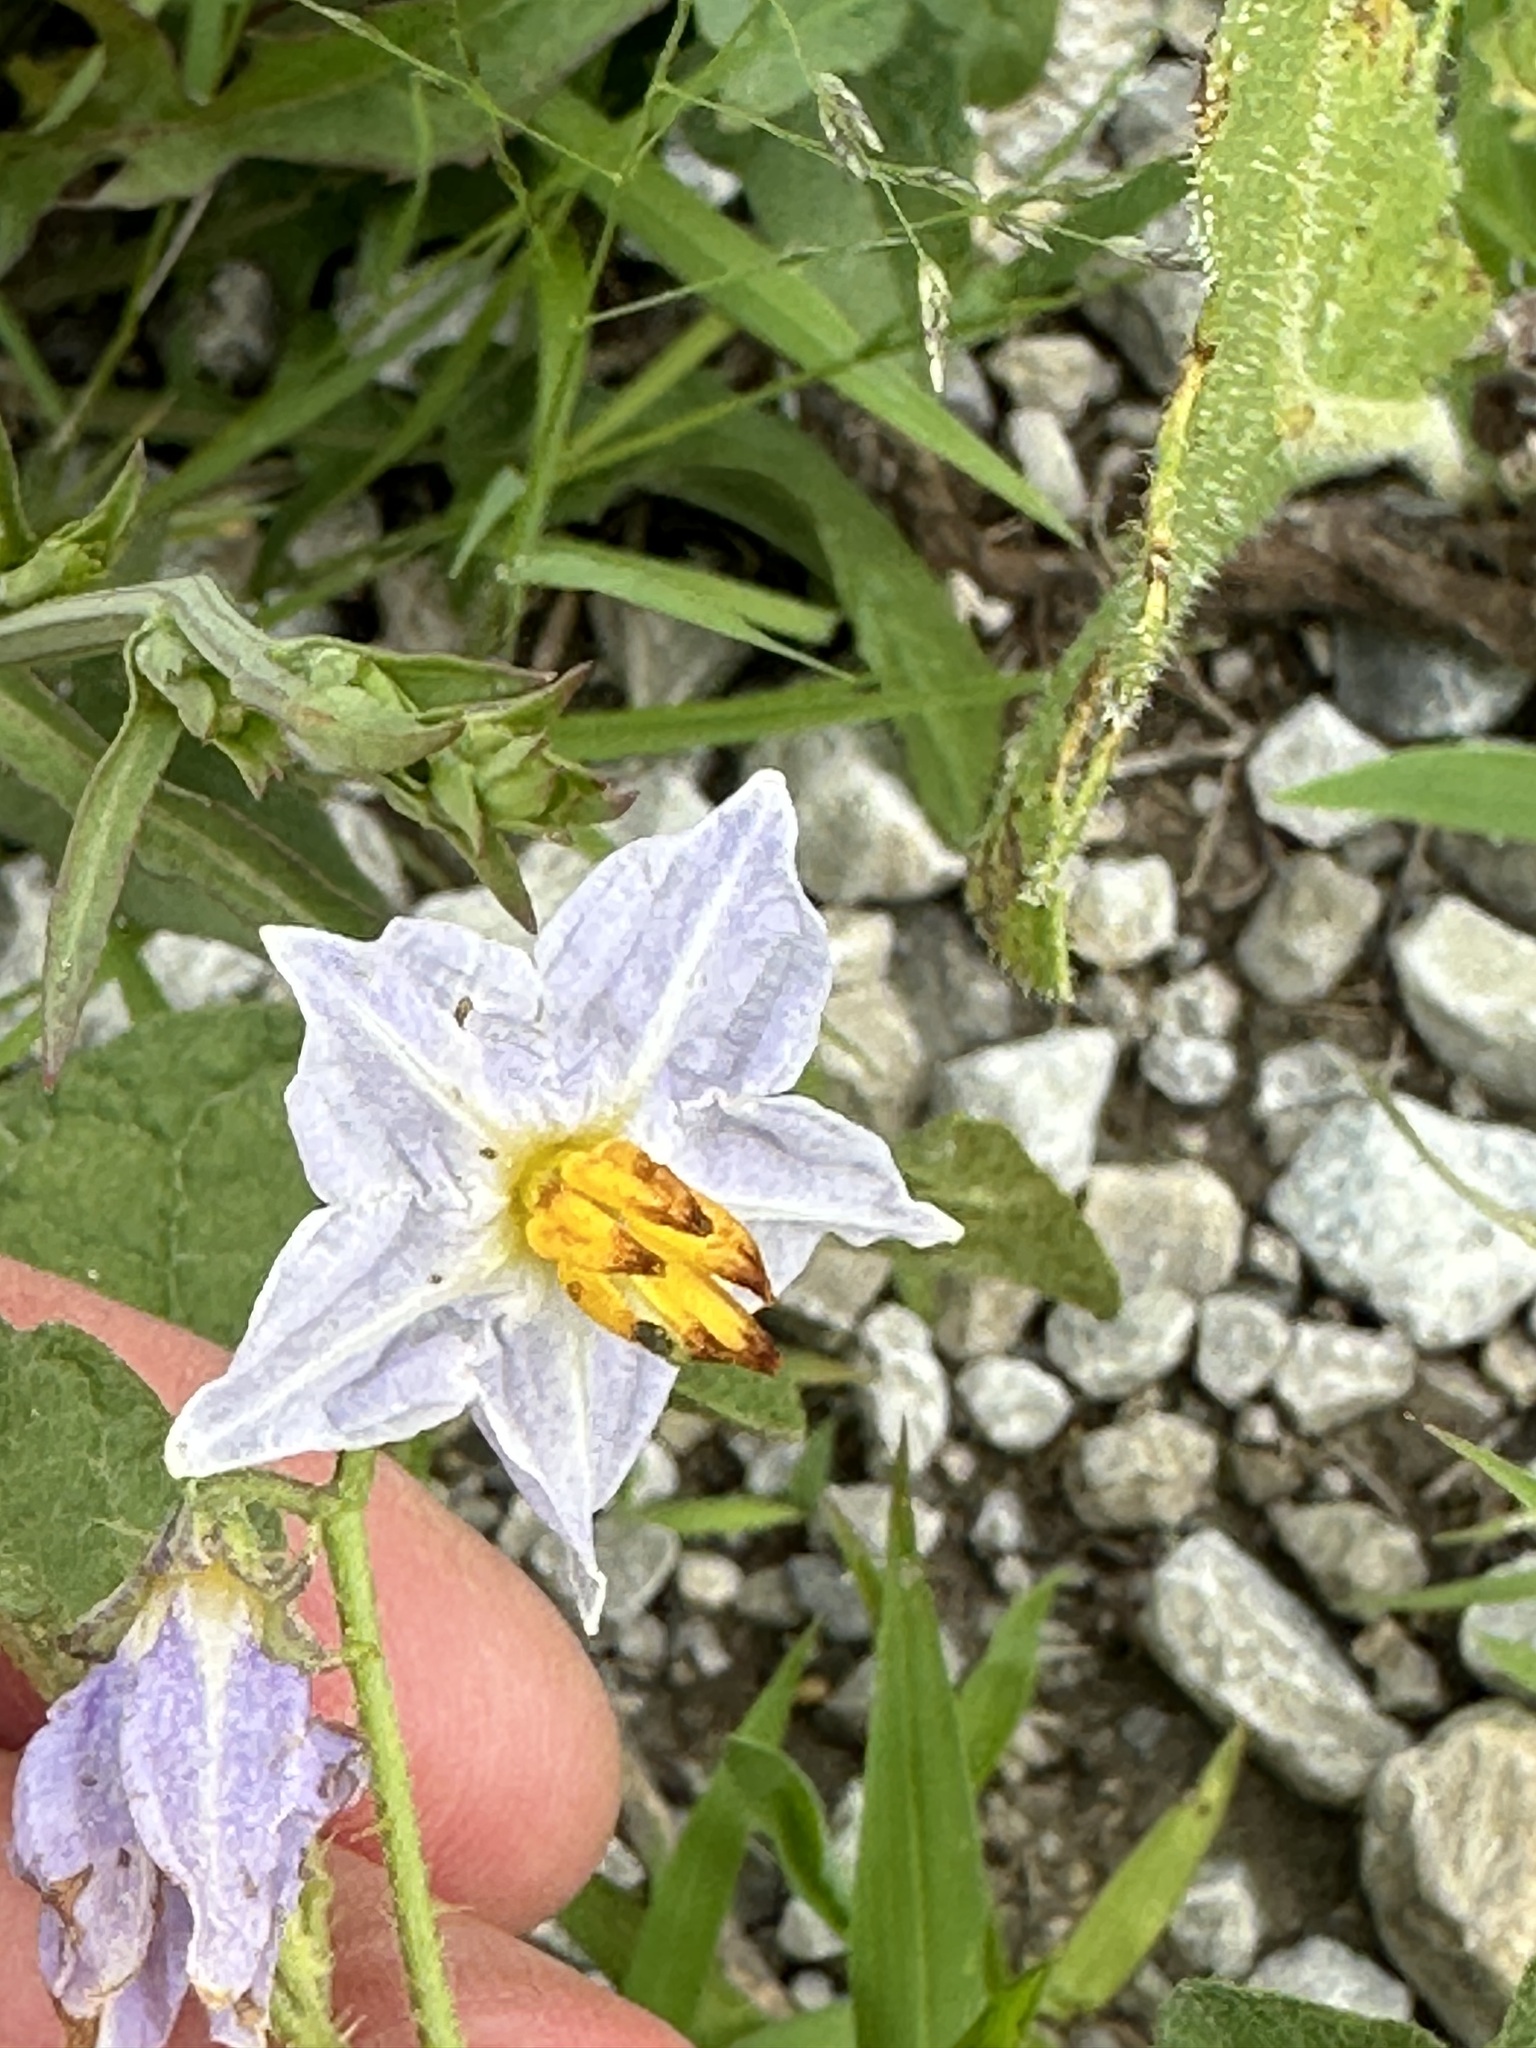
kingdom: Plantae
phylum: Tracheophyta
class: Magnoliopsida
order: Solanales
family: Solanaceae
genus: Solanum
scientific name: Solanum carolinense
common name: Horse-nettle
